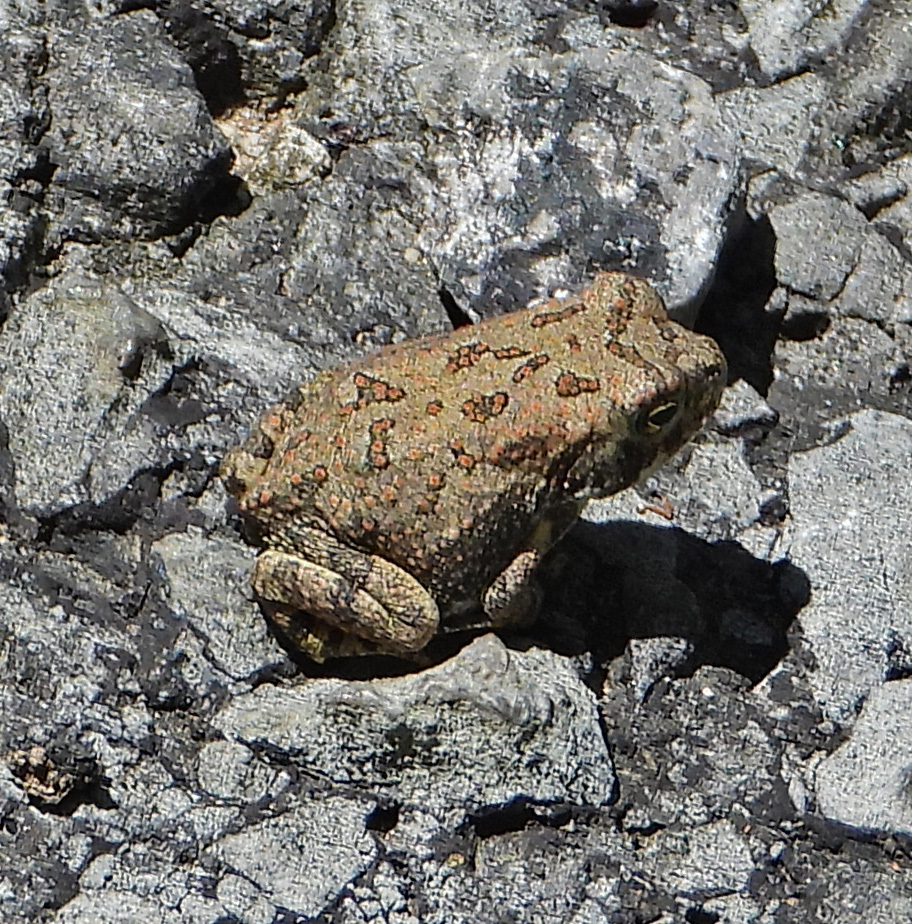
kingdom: Animalia
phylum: Chordata
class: Amphibia
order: Anura
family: Bufonidae
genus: Anaxyrus
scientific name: Anaxyrus fowleri
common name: Fowler's toad
